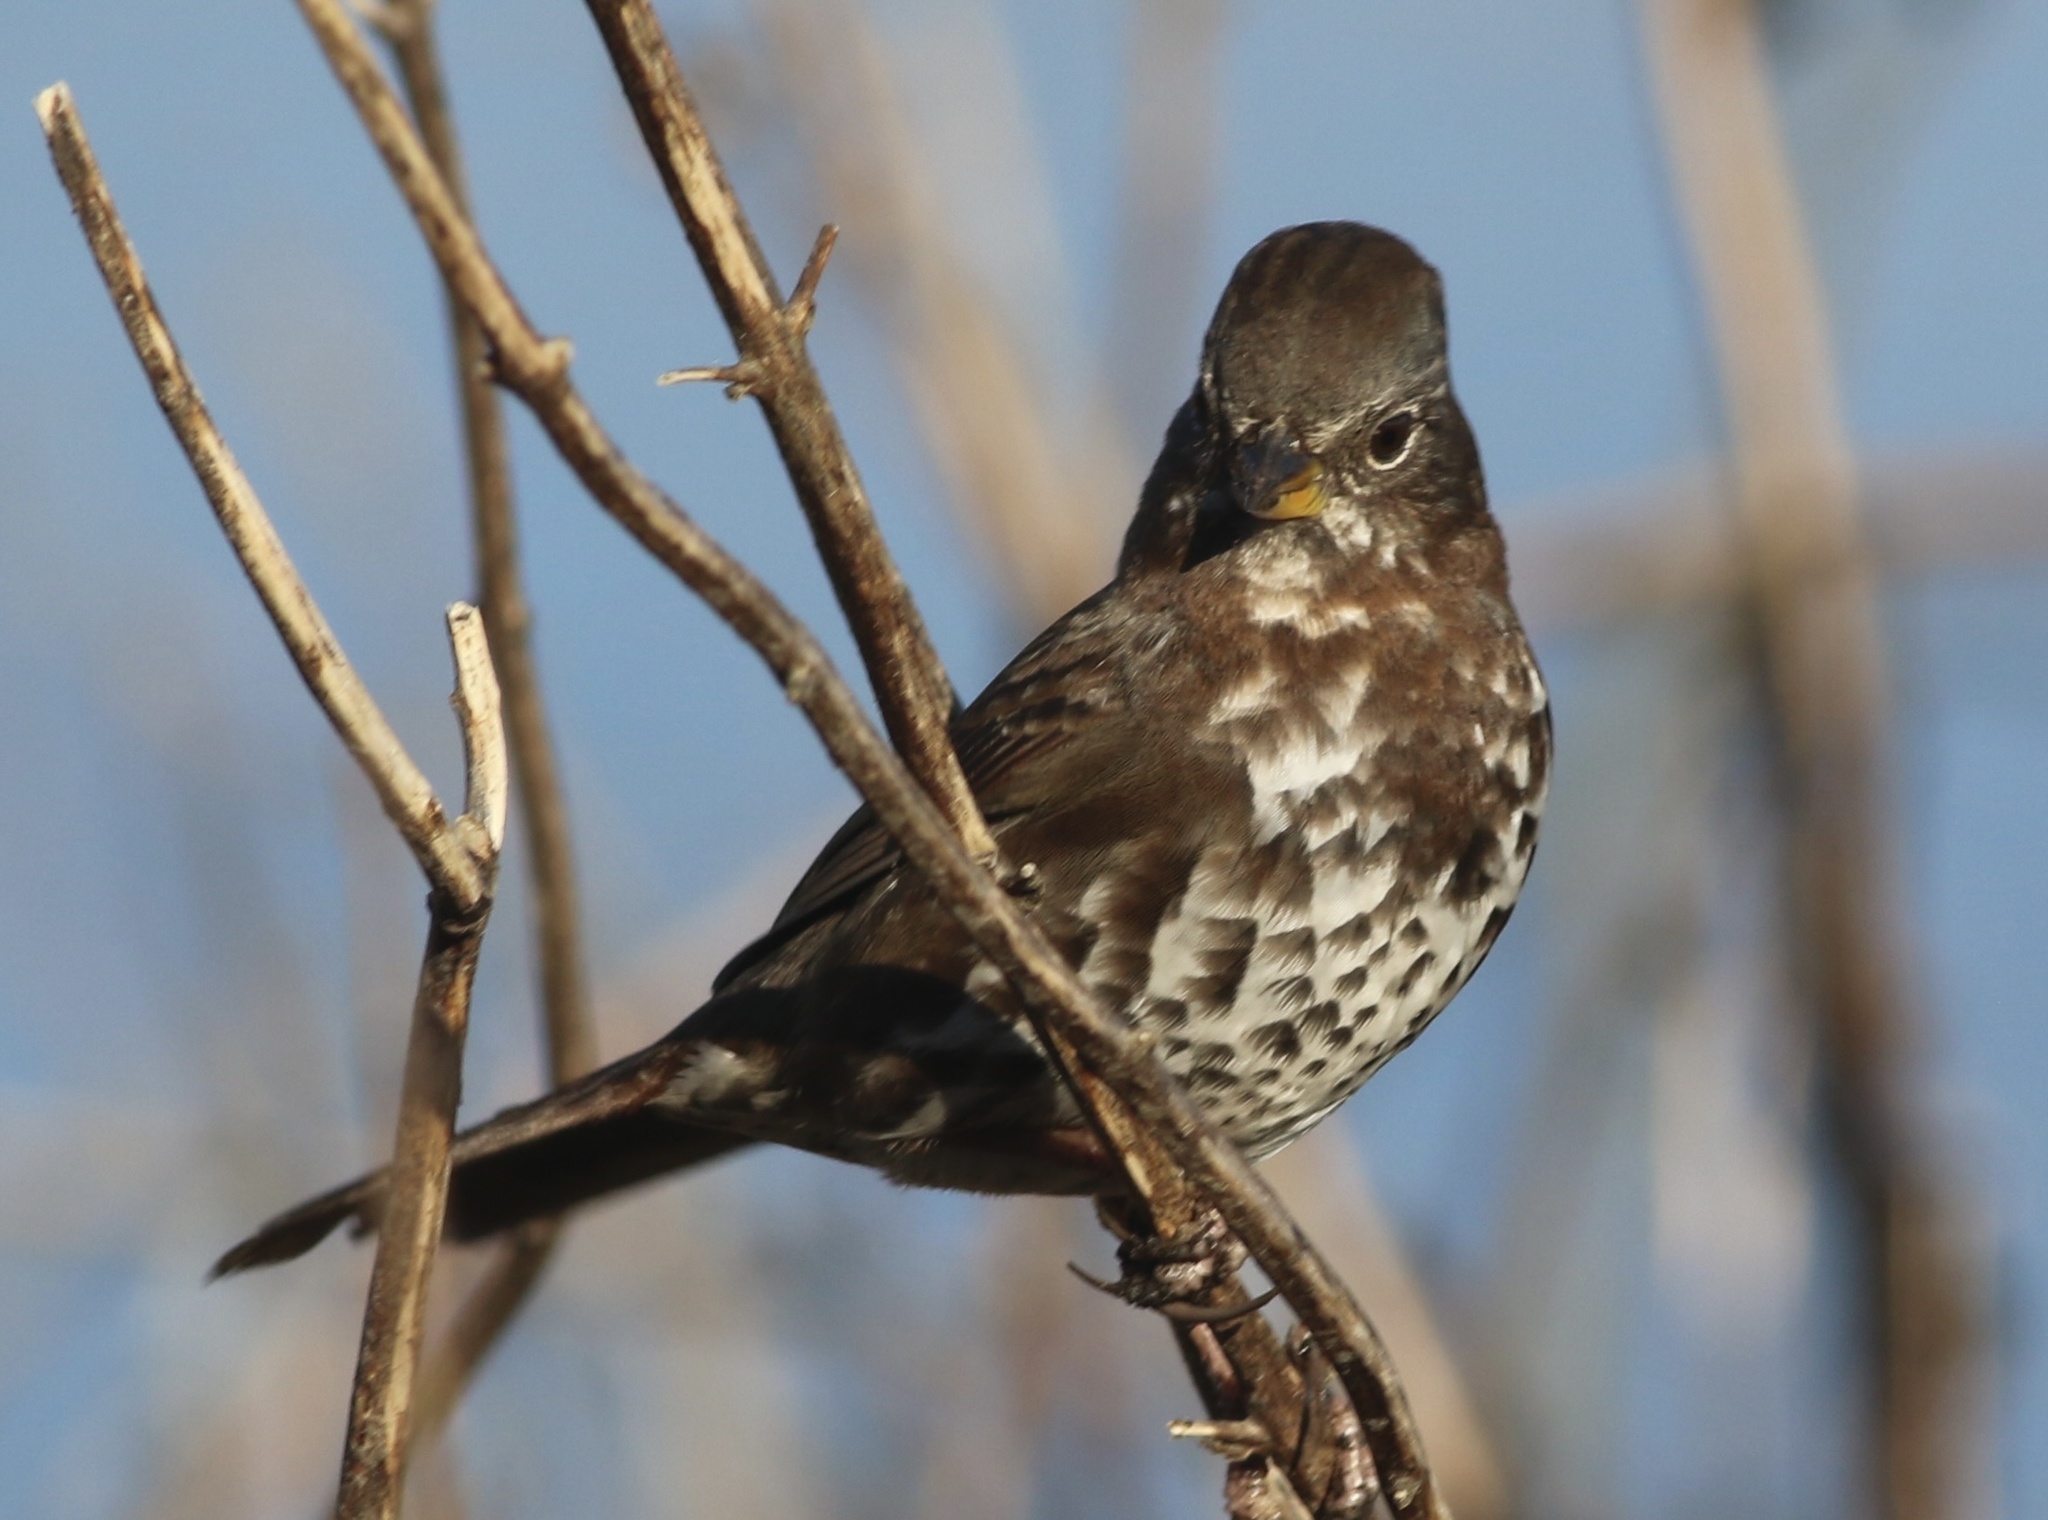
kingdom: Animalia
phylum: Chordata
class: Aves
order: Passeriformes
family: Passerellidae
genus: Passerella
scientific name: Passerella iliaca
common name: Fox sparrow
